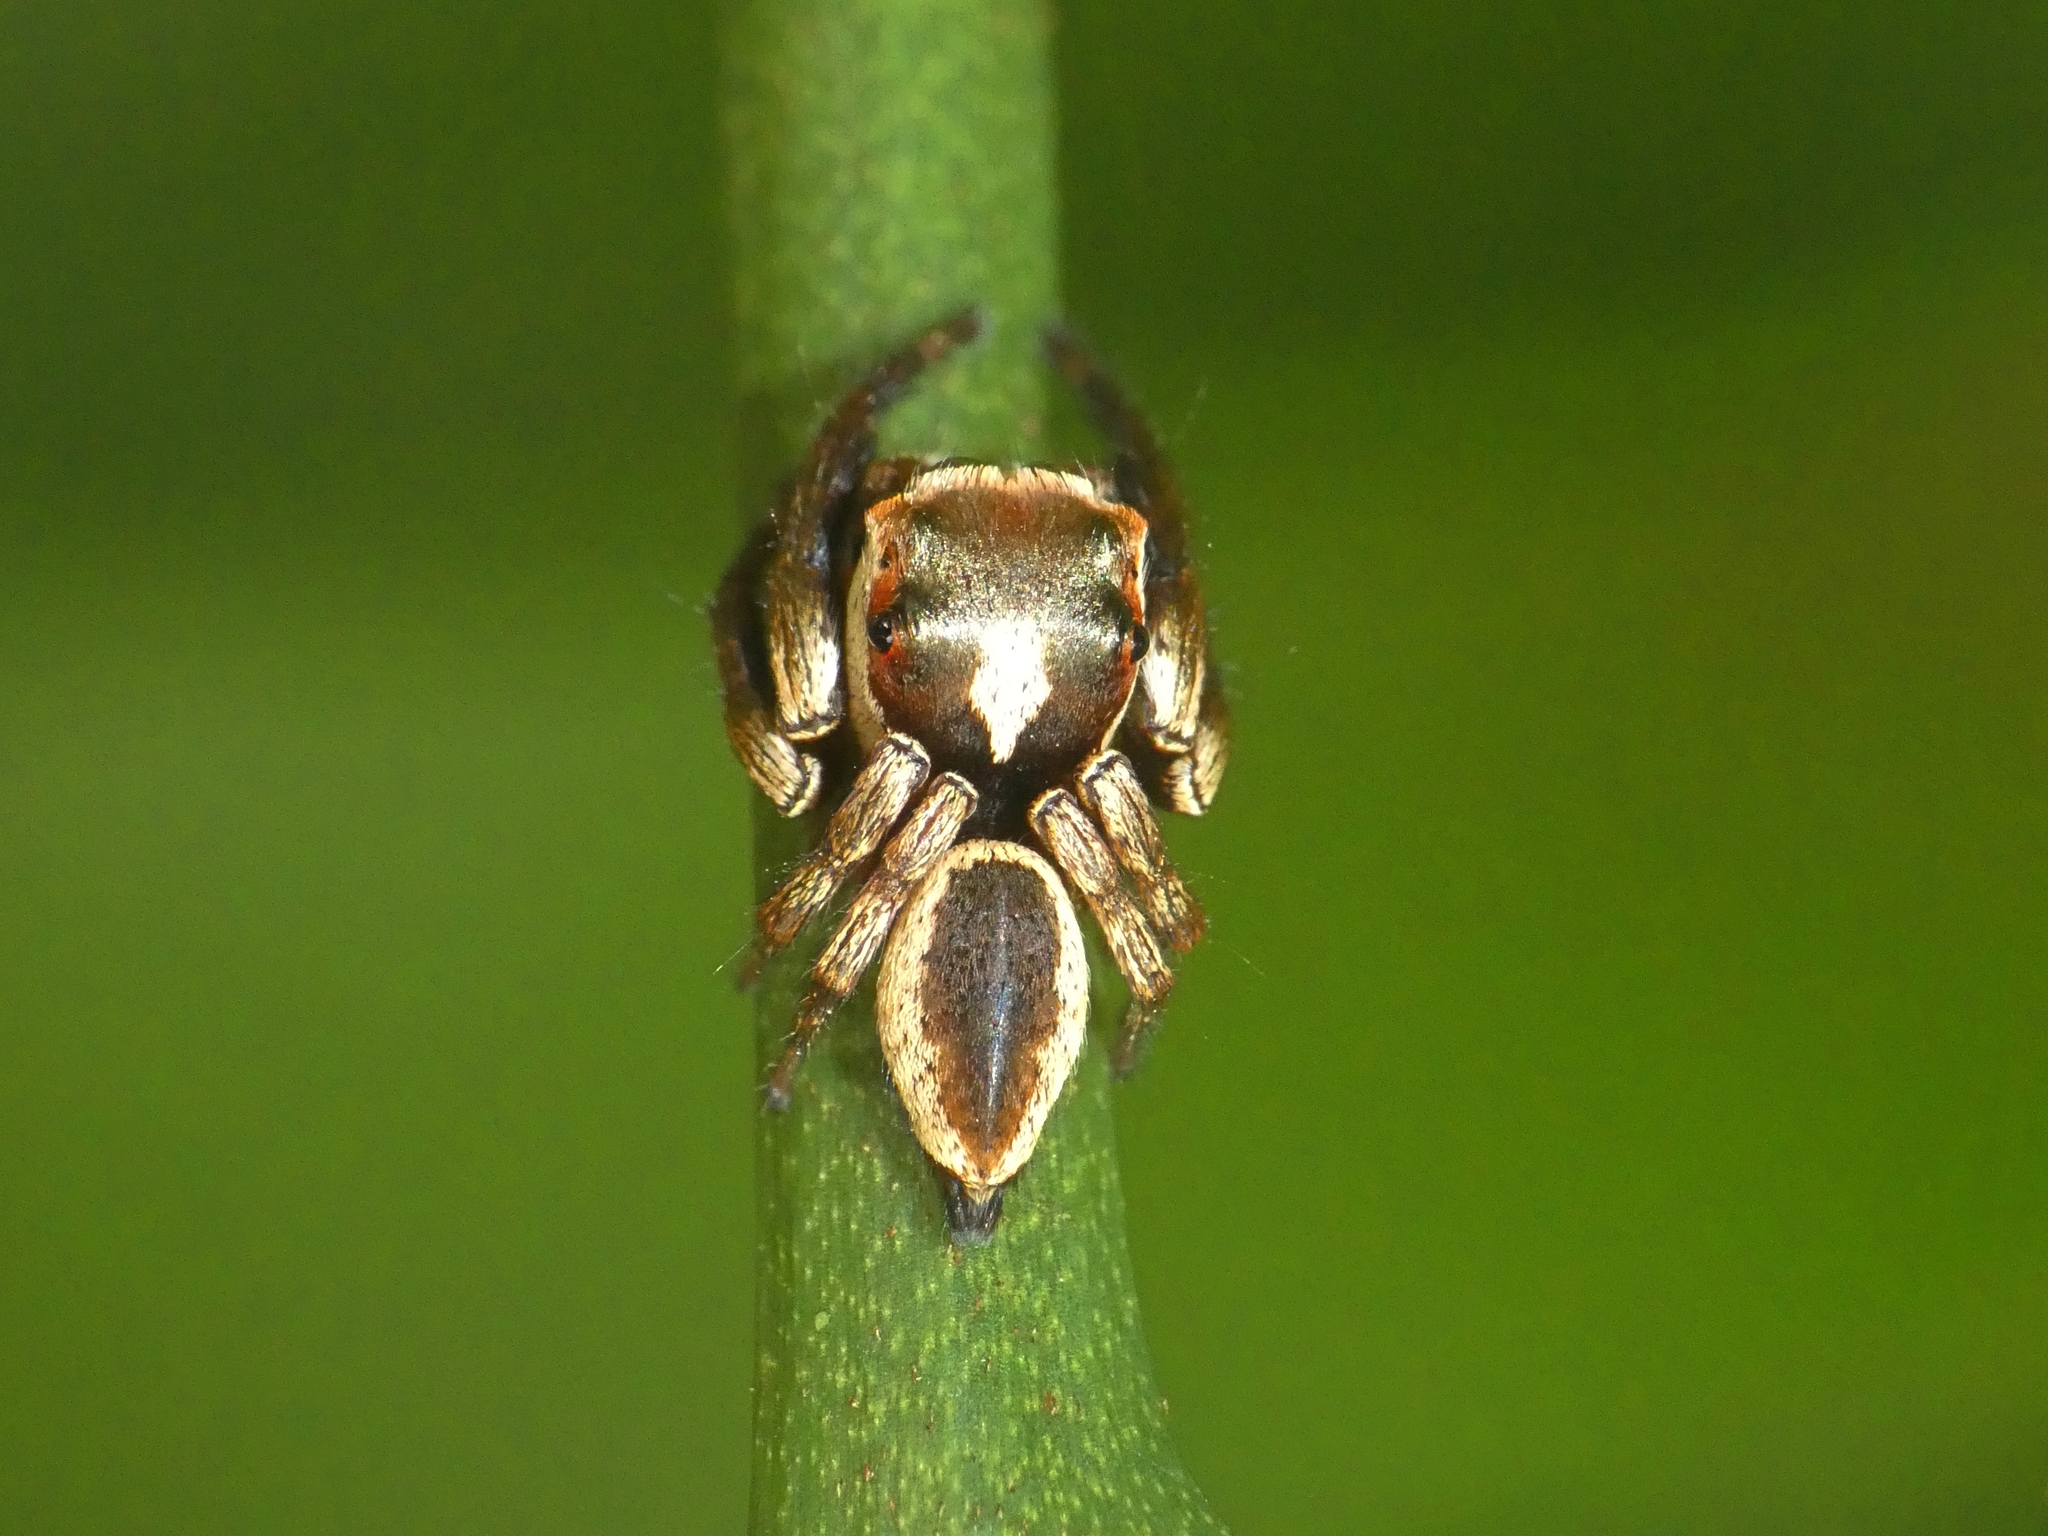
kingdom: Animalia
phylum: Arthropoda
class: Arachnida
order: Araneae
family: Salticidae
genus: Euryattus
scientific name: Euryattus wallacei
